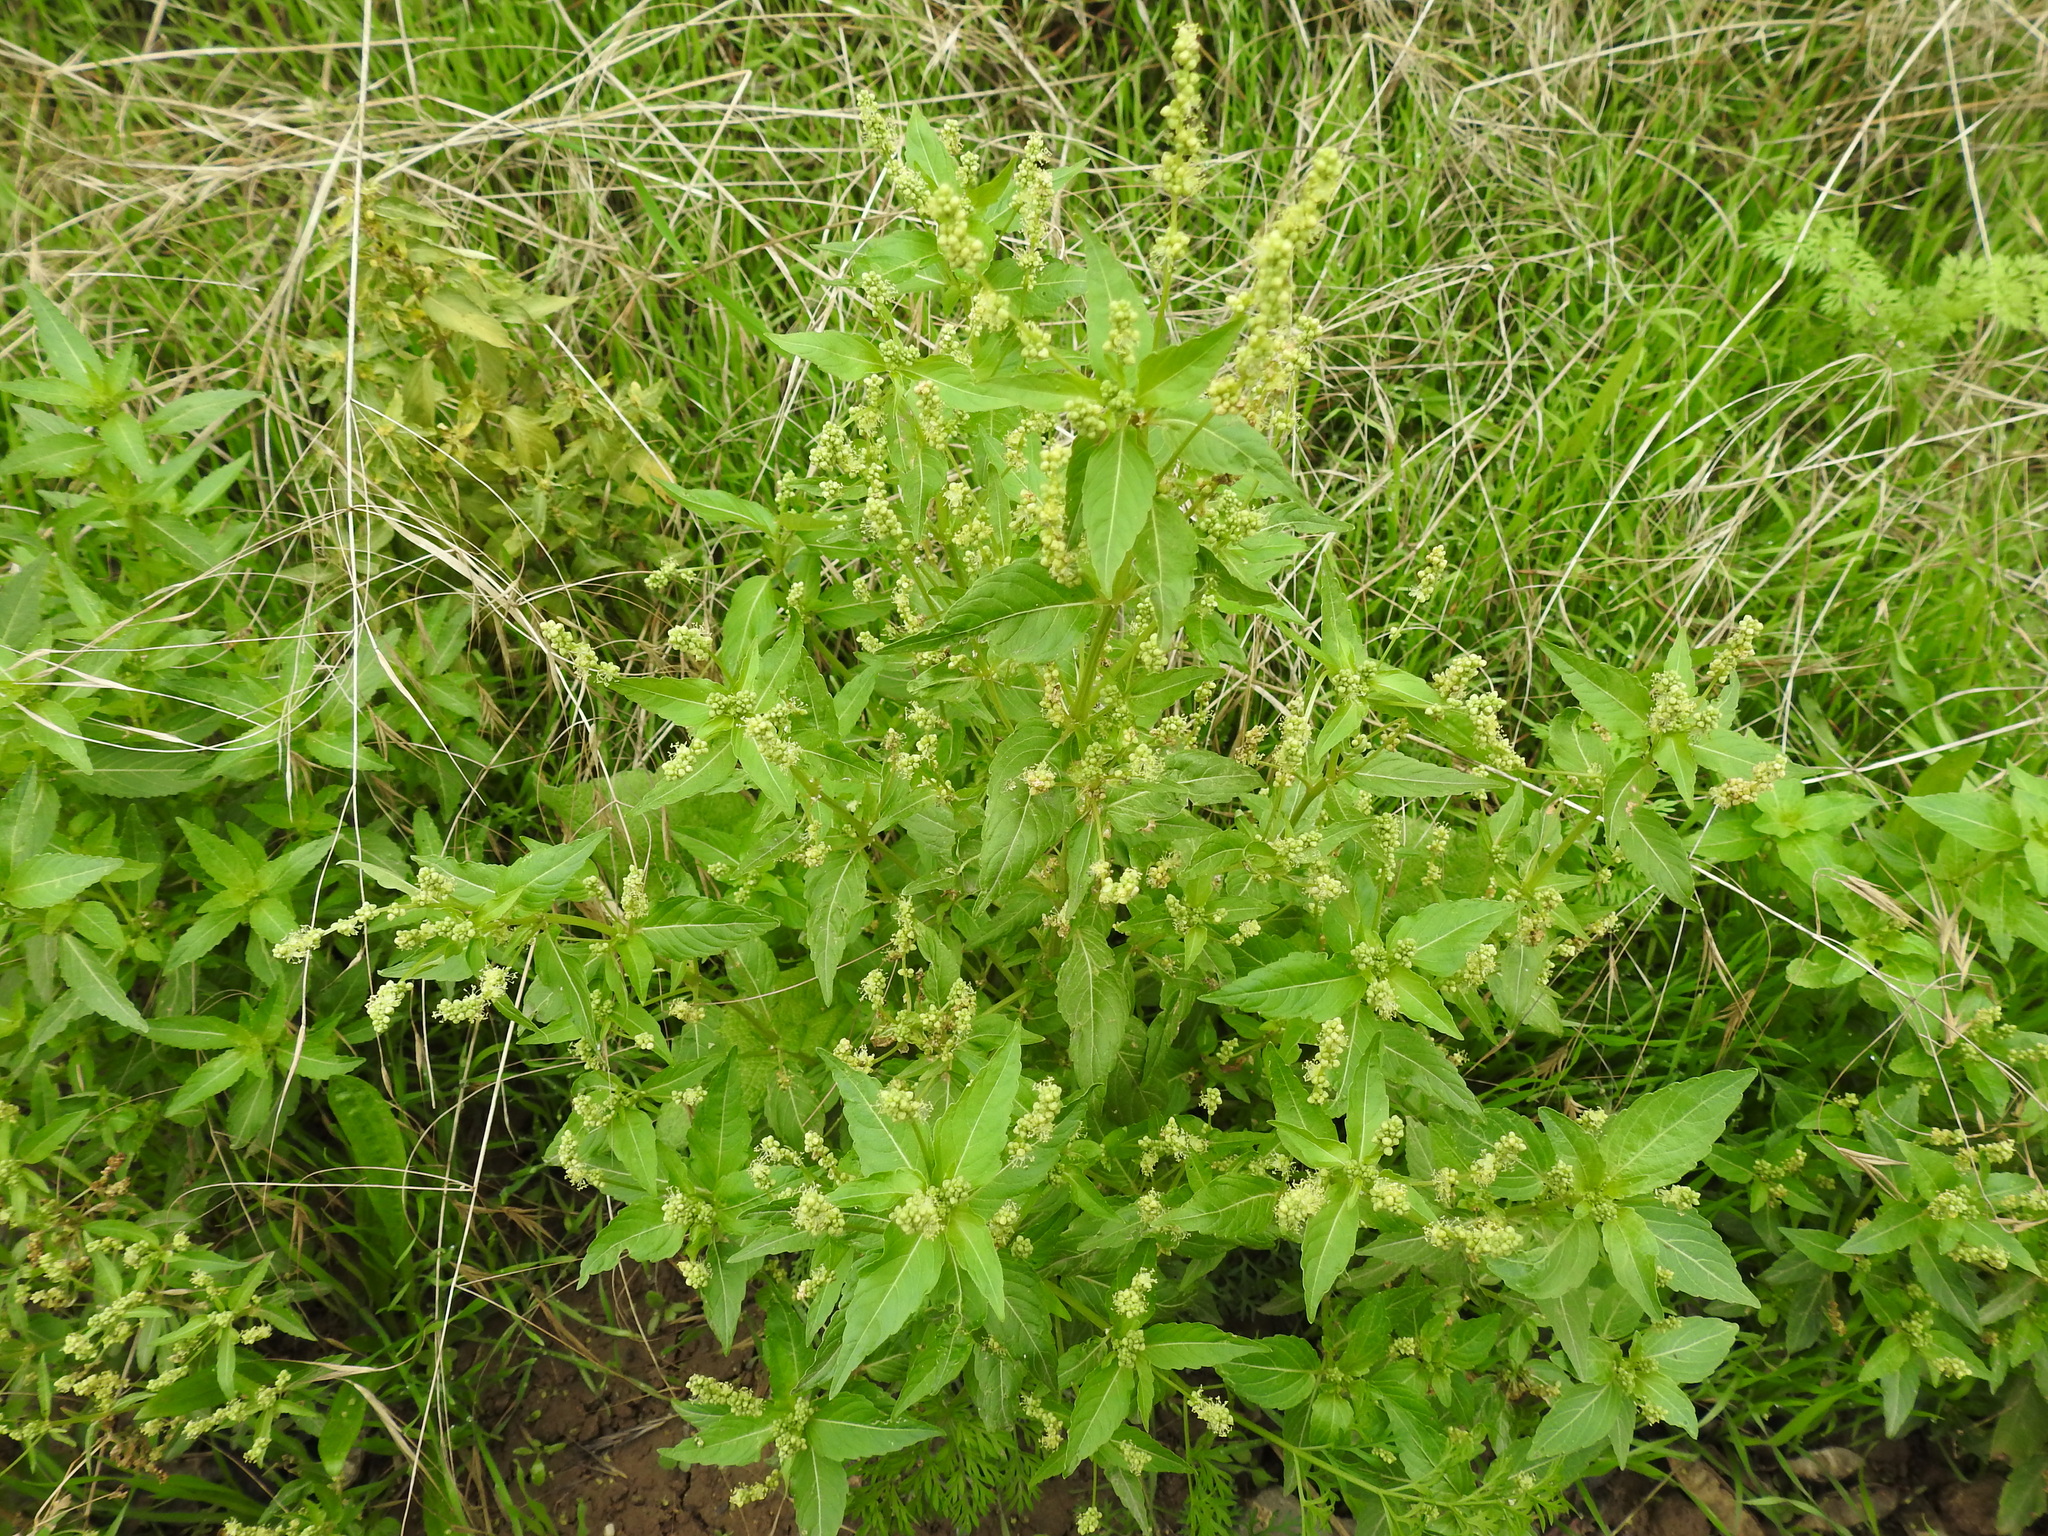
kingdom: Plantae
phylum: Tracheophyta
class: Magnoliopsida
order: Malpighiales
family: Euphorbiaceae
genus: Mercurialis
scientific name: Mercurialis annua
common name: Annual mercury
